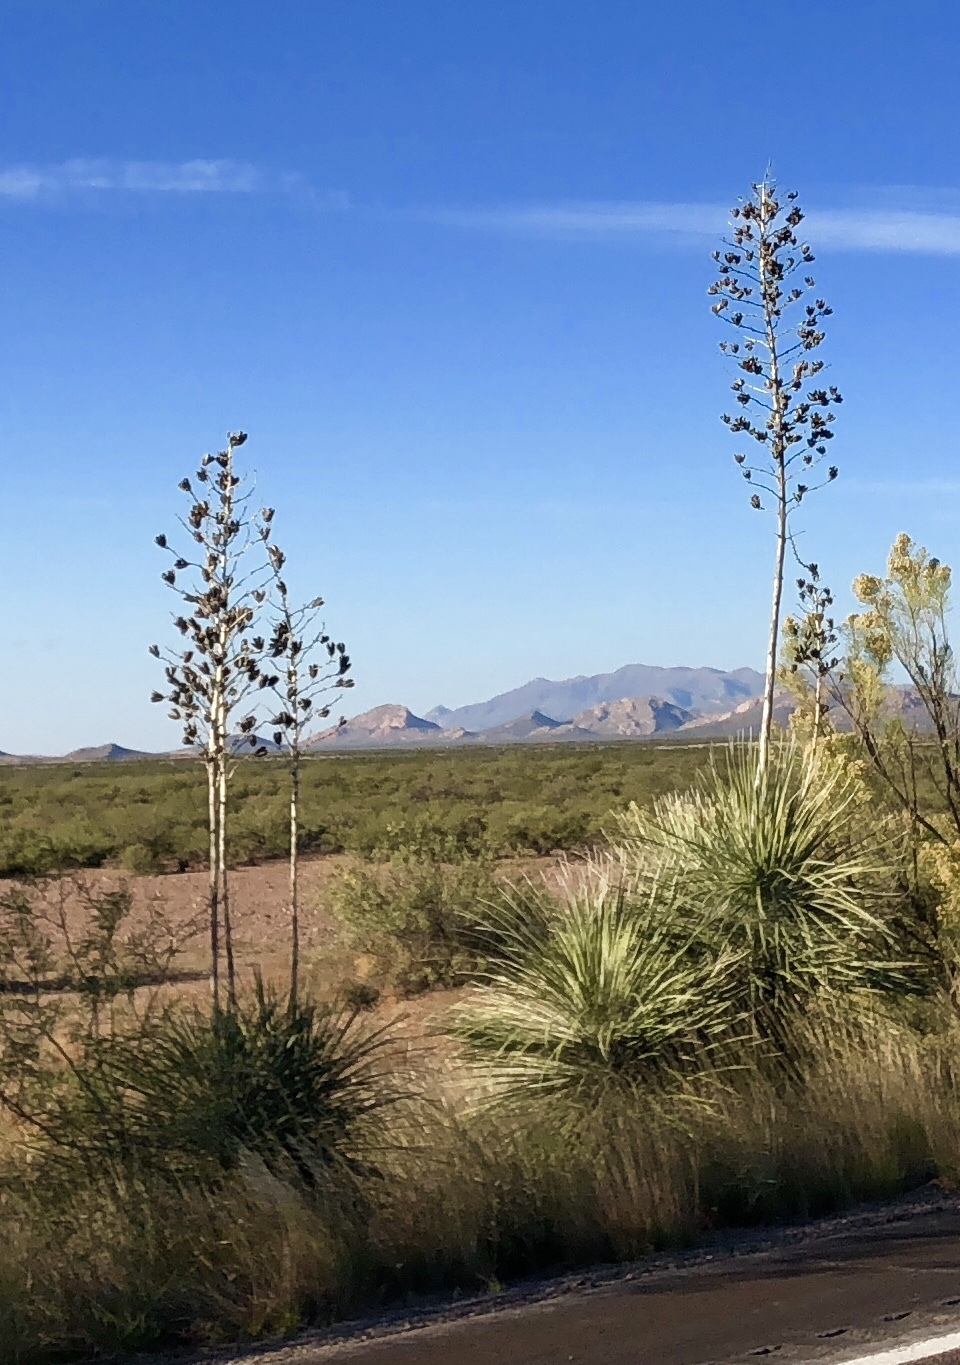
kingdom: Plantae
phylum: Tracheophyta
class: Liliopsida
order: Asparagales
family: Asparagaceae
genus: Yucca
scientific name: Yucca elata
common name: Palmella
